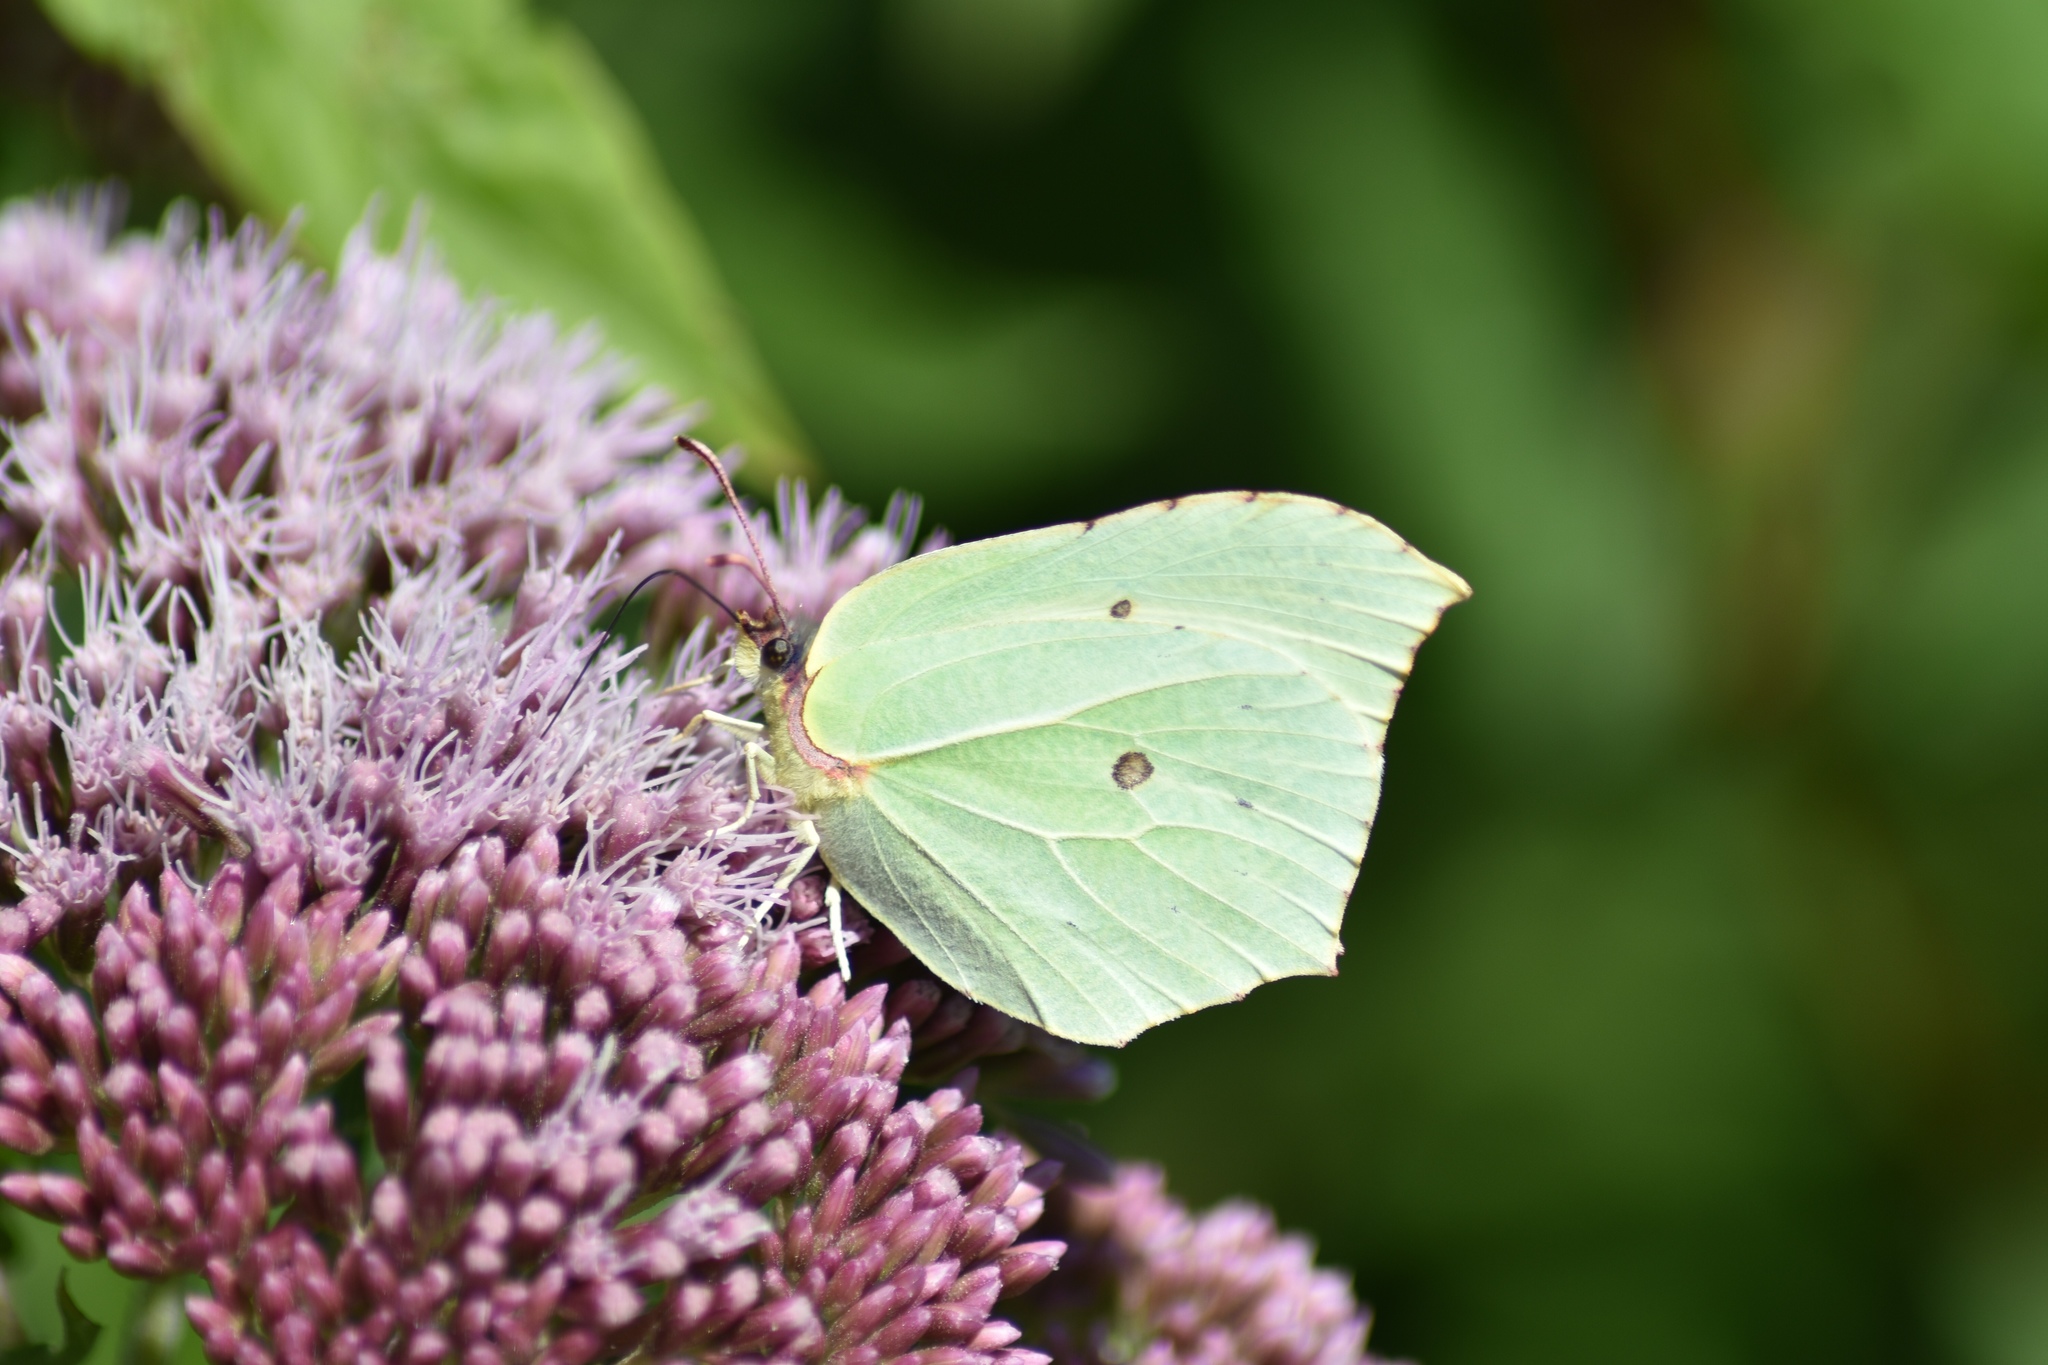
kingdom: Animalia
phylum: Arthropoda
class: Insecta
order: Lepidoptera
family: Pieridae
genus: Gonepteryx
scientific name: Gonepteryx rhamni
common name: Brimstone
